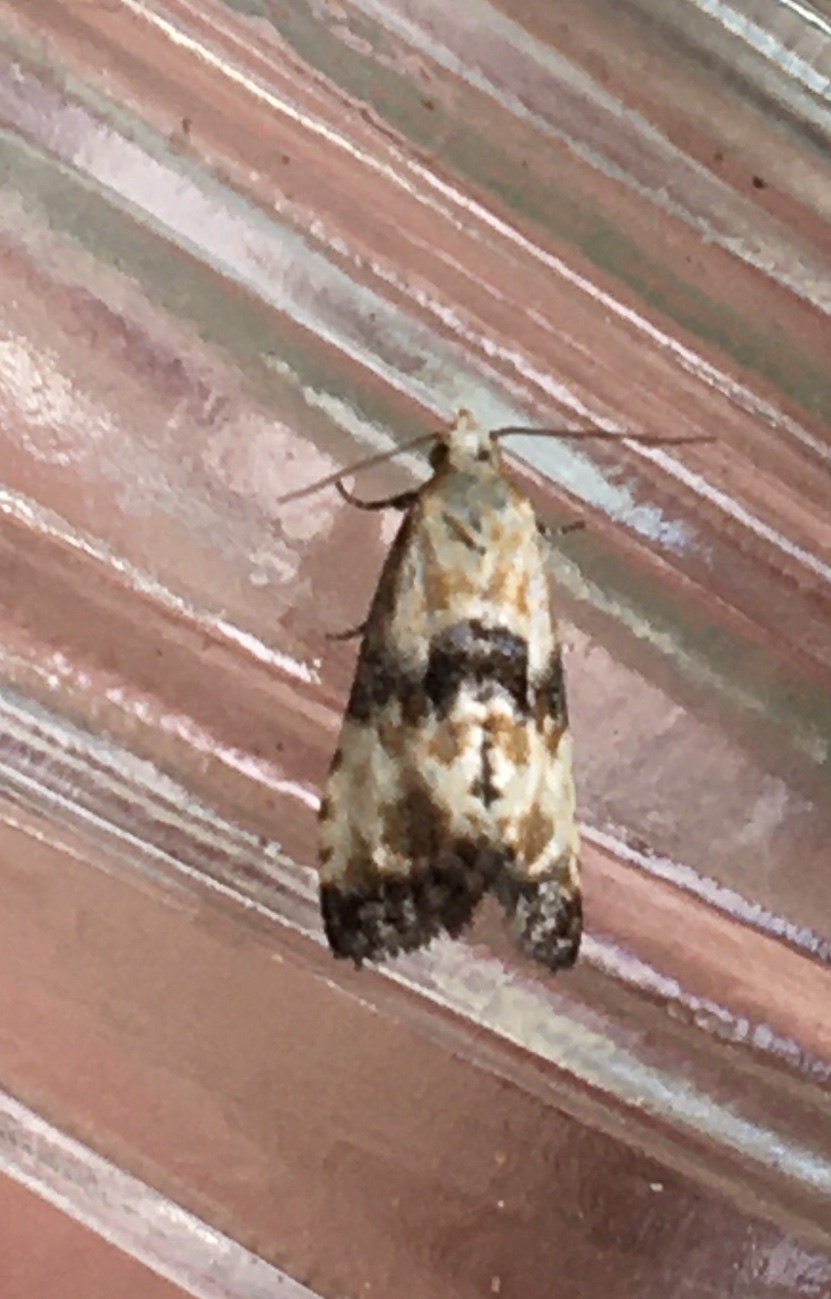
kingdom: Animalia
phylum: Arthropoda
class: Insecta
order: Lepidoptera
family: Tortricidae
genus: Eupoecilia
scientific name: Eupoecilia angustana
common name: Marbled conch
